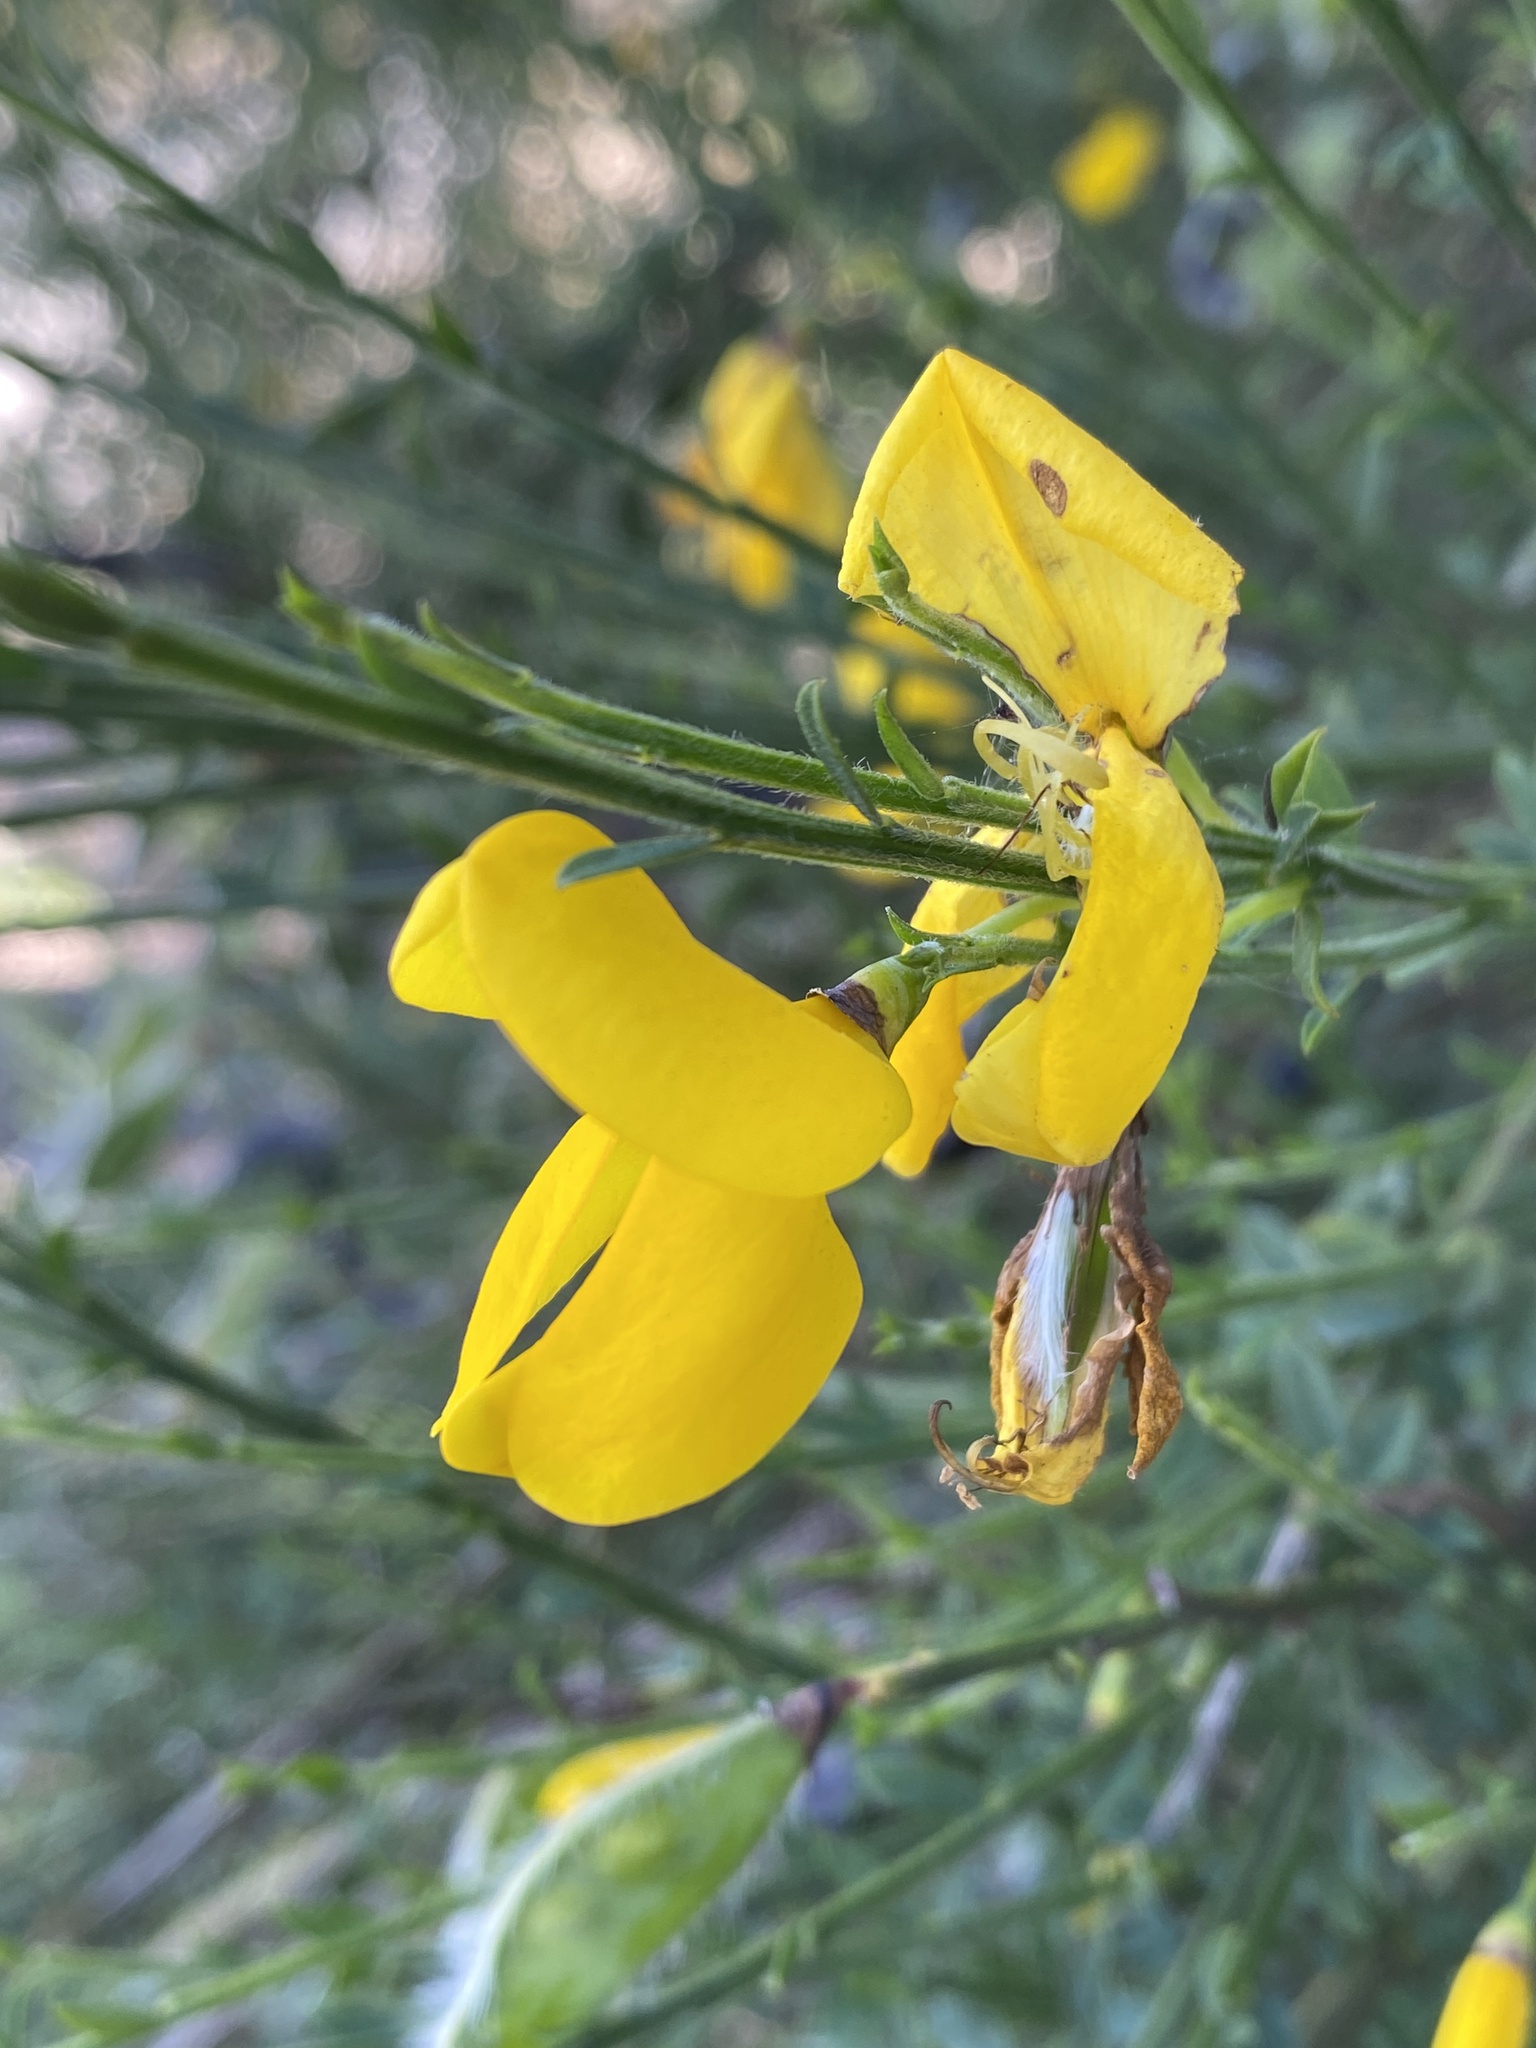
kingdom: Plantae
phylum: Tracheophyta
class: Magnoliopsida
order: Fabales
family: Fabaceae
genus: Cytisus
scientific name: Cytisus scoparius
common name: Scotch broom
